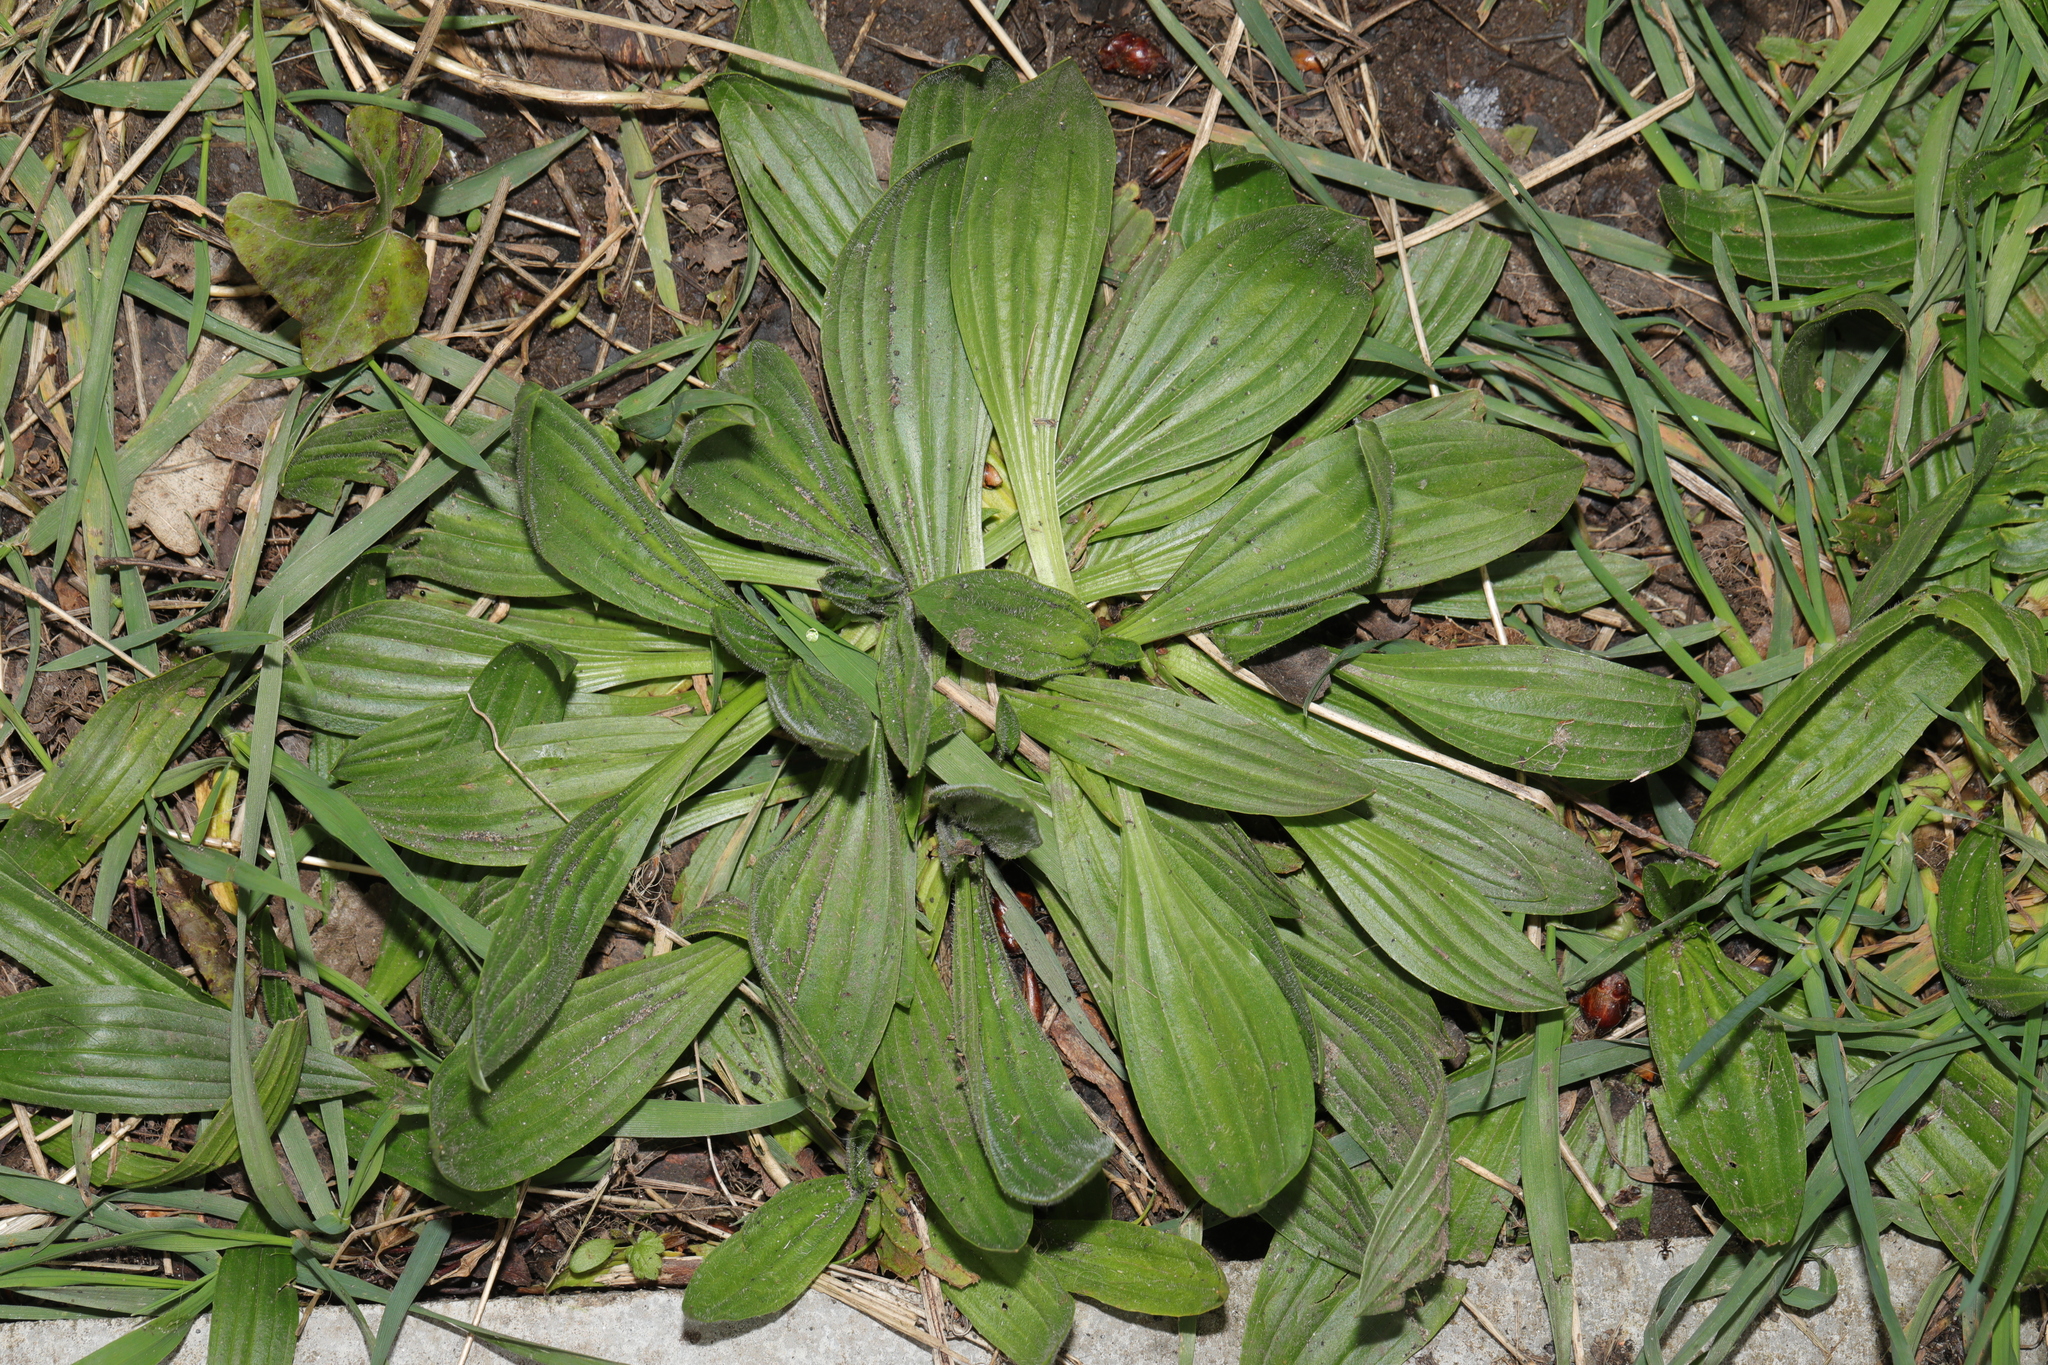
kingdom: Plantae
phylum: Tracheophyta
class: Magnoliopsida
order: Lamiales
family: Plantaginaceae
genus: Plantago
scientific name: Plantago lanceolata
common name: Ribwort plantain
